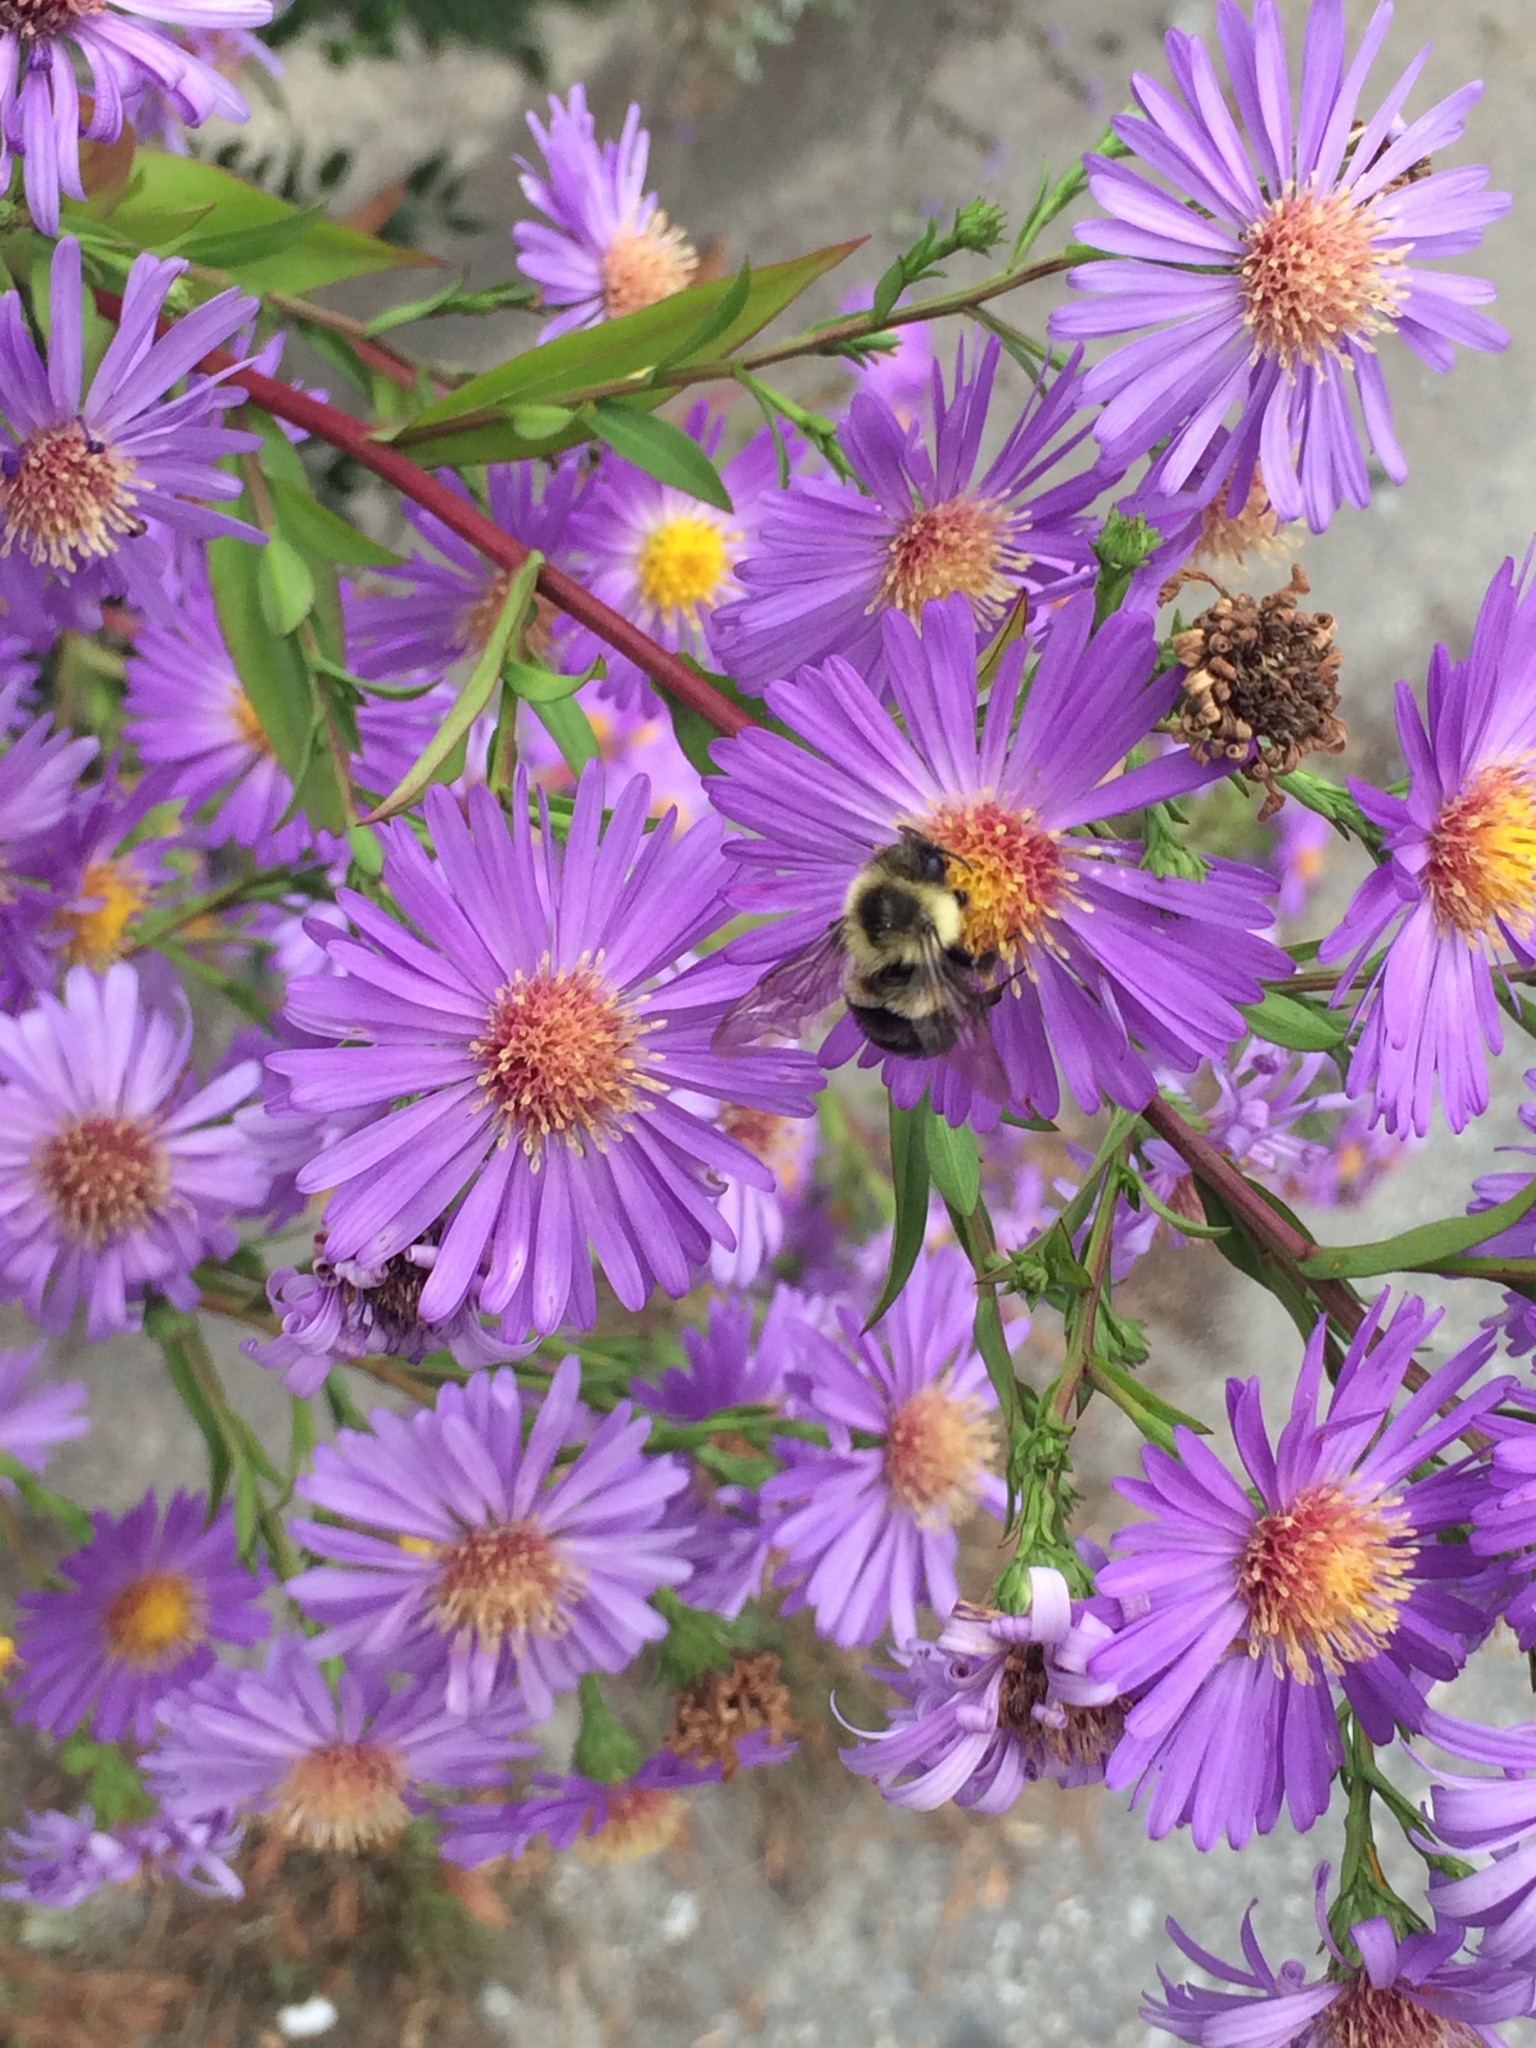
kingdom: Animalia
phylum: Arthropoda
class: Insecta
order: Hymenoptera
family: Apidae
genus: Bombus
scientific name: Bombus impatiens
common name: Common eastern bumble bee
